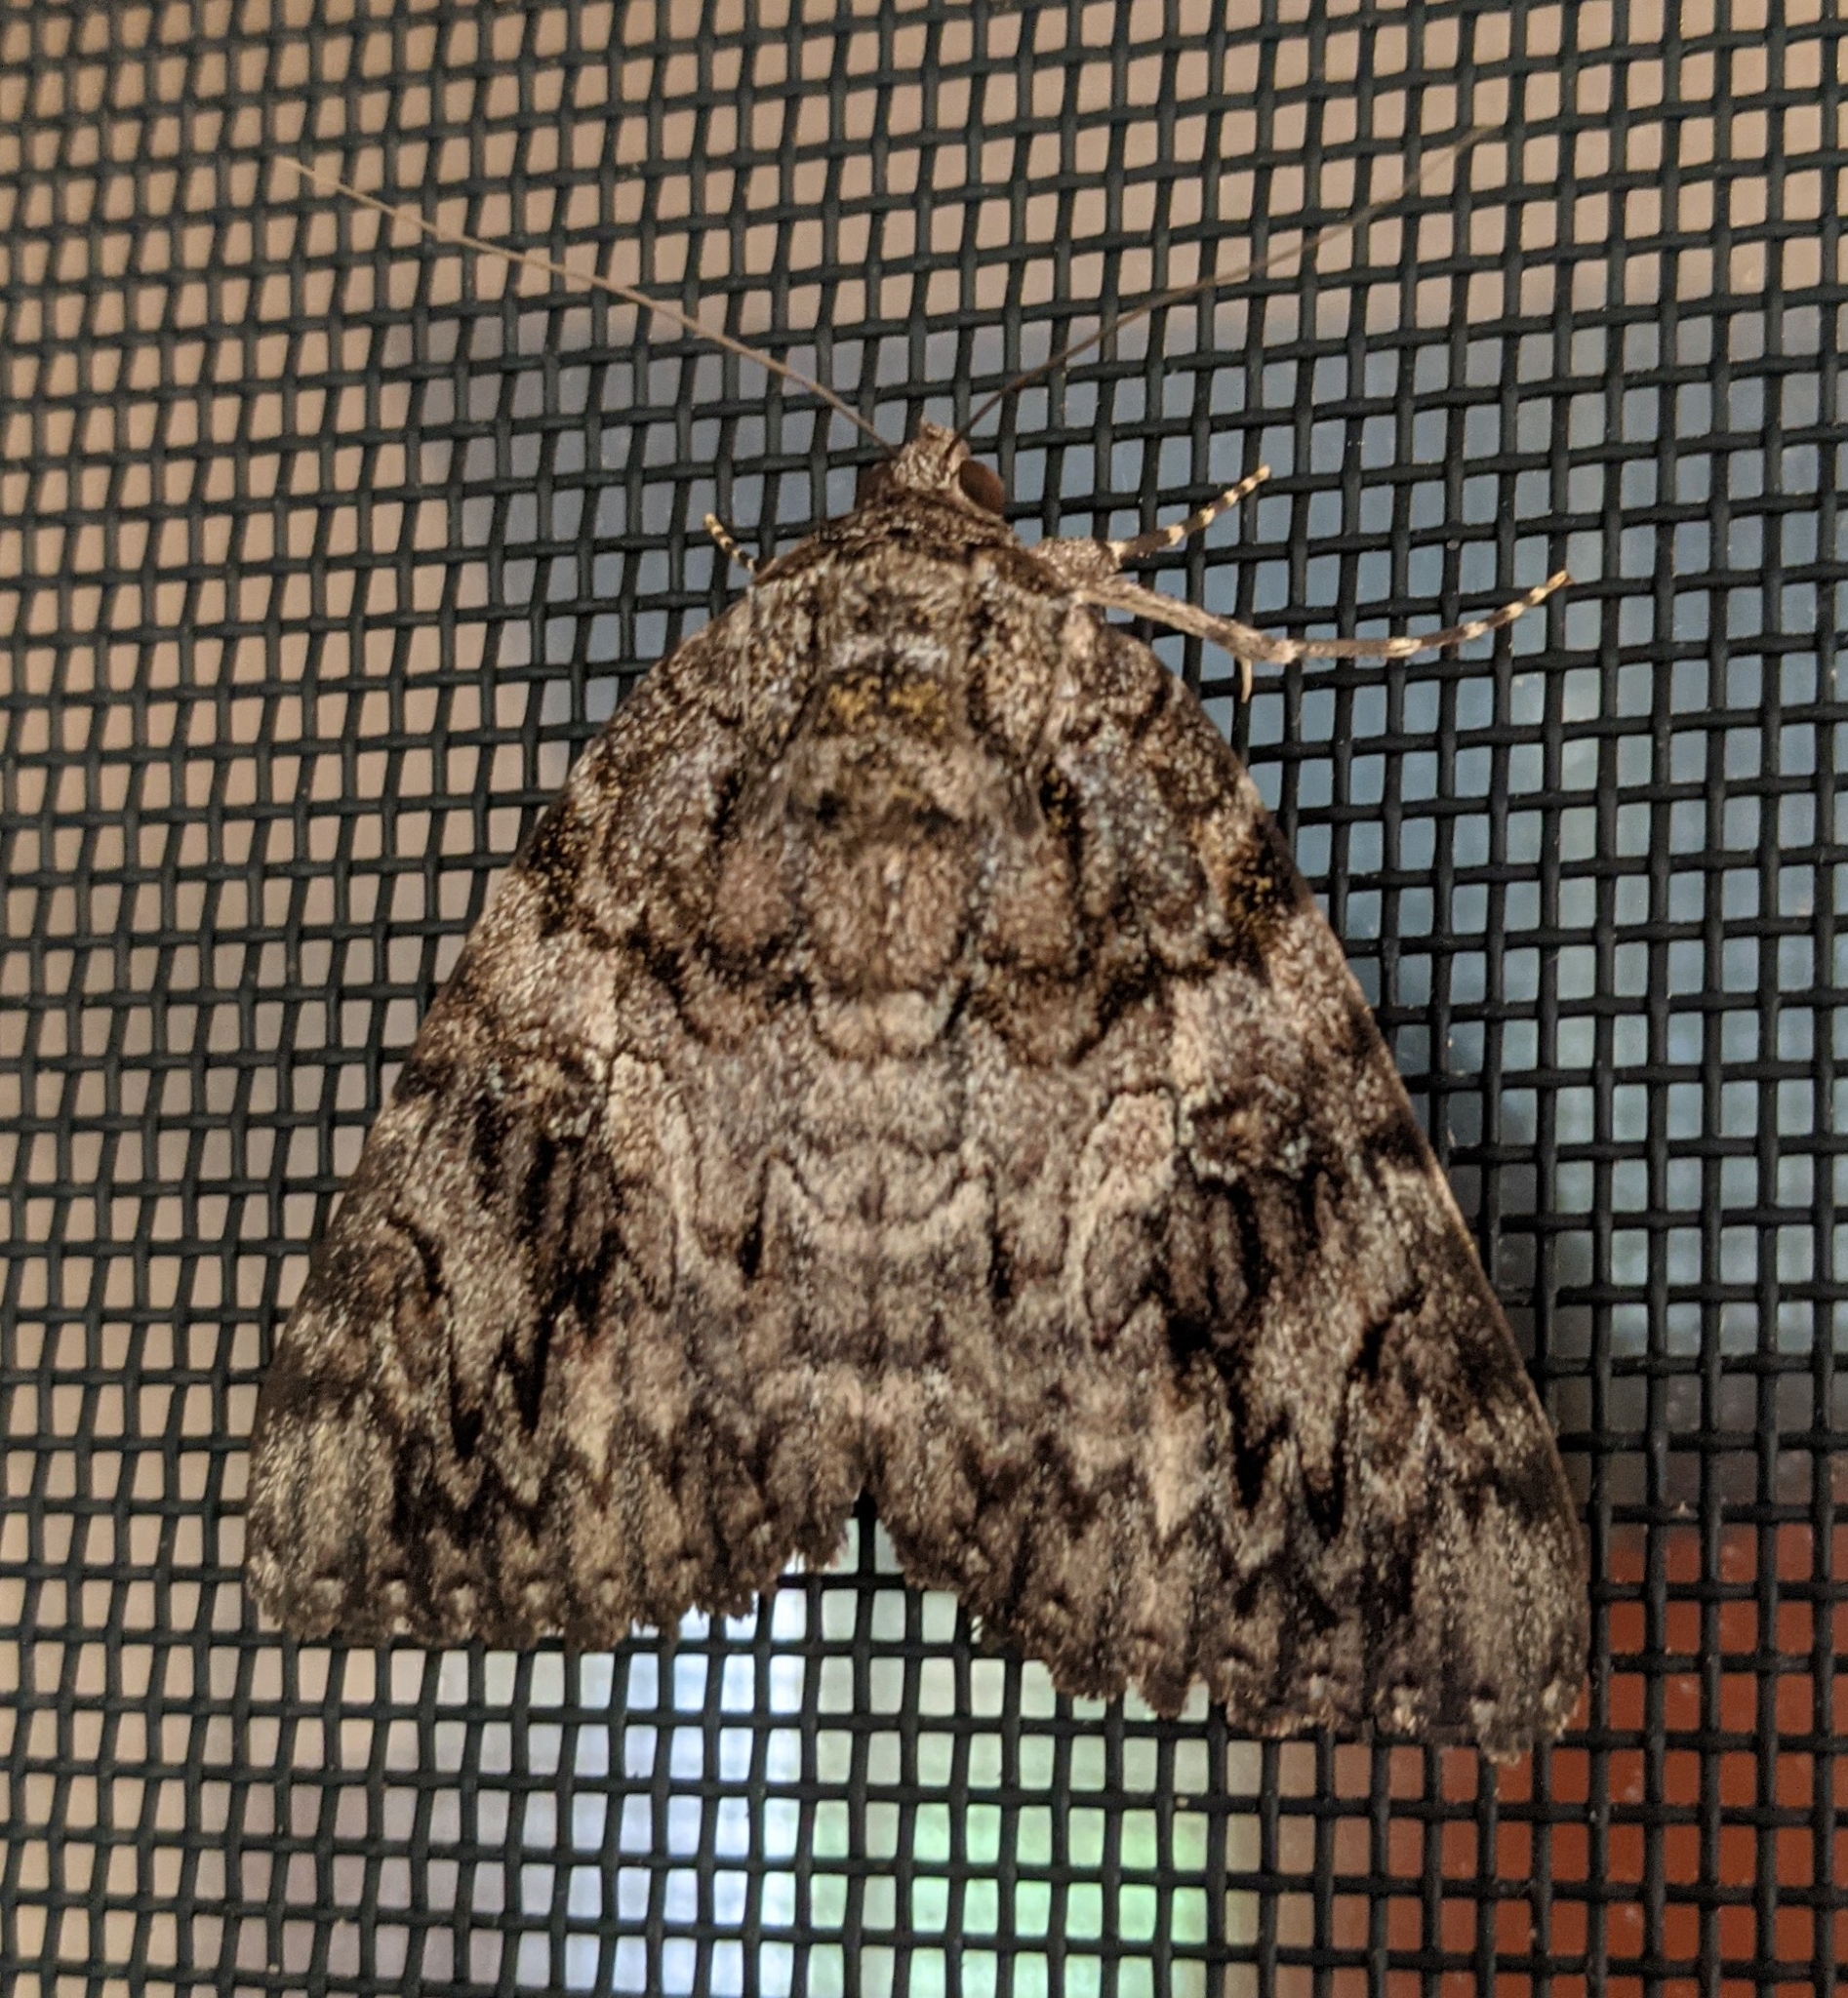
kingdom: Animalia
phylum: Arthropoda
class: Insecta
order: Lepidoptera
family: Erebidae
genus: Catocala
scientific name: Catocala ilia
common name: Ilia underwing
